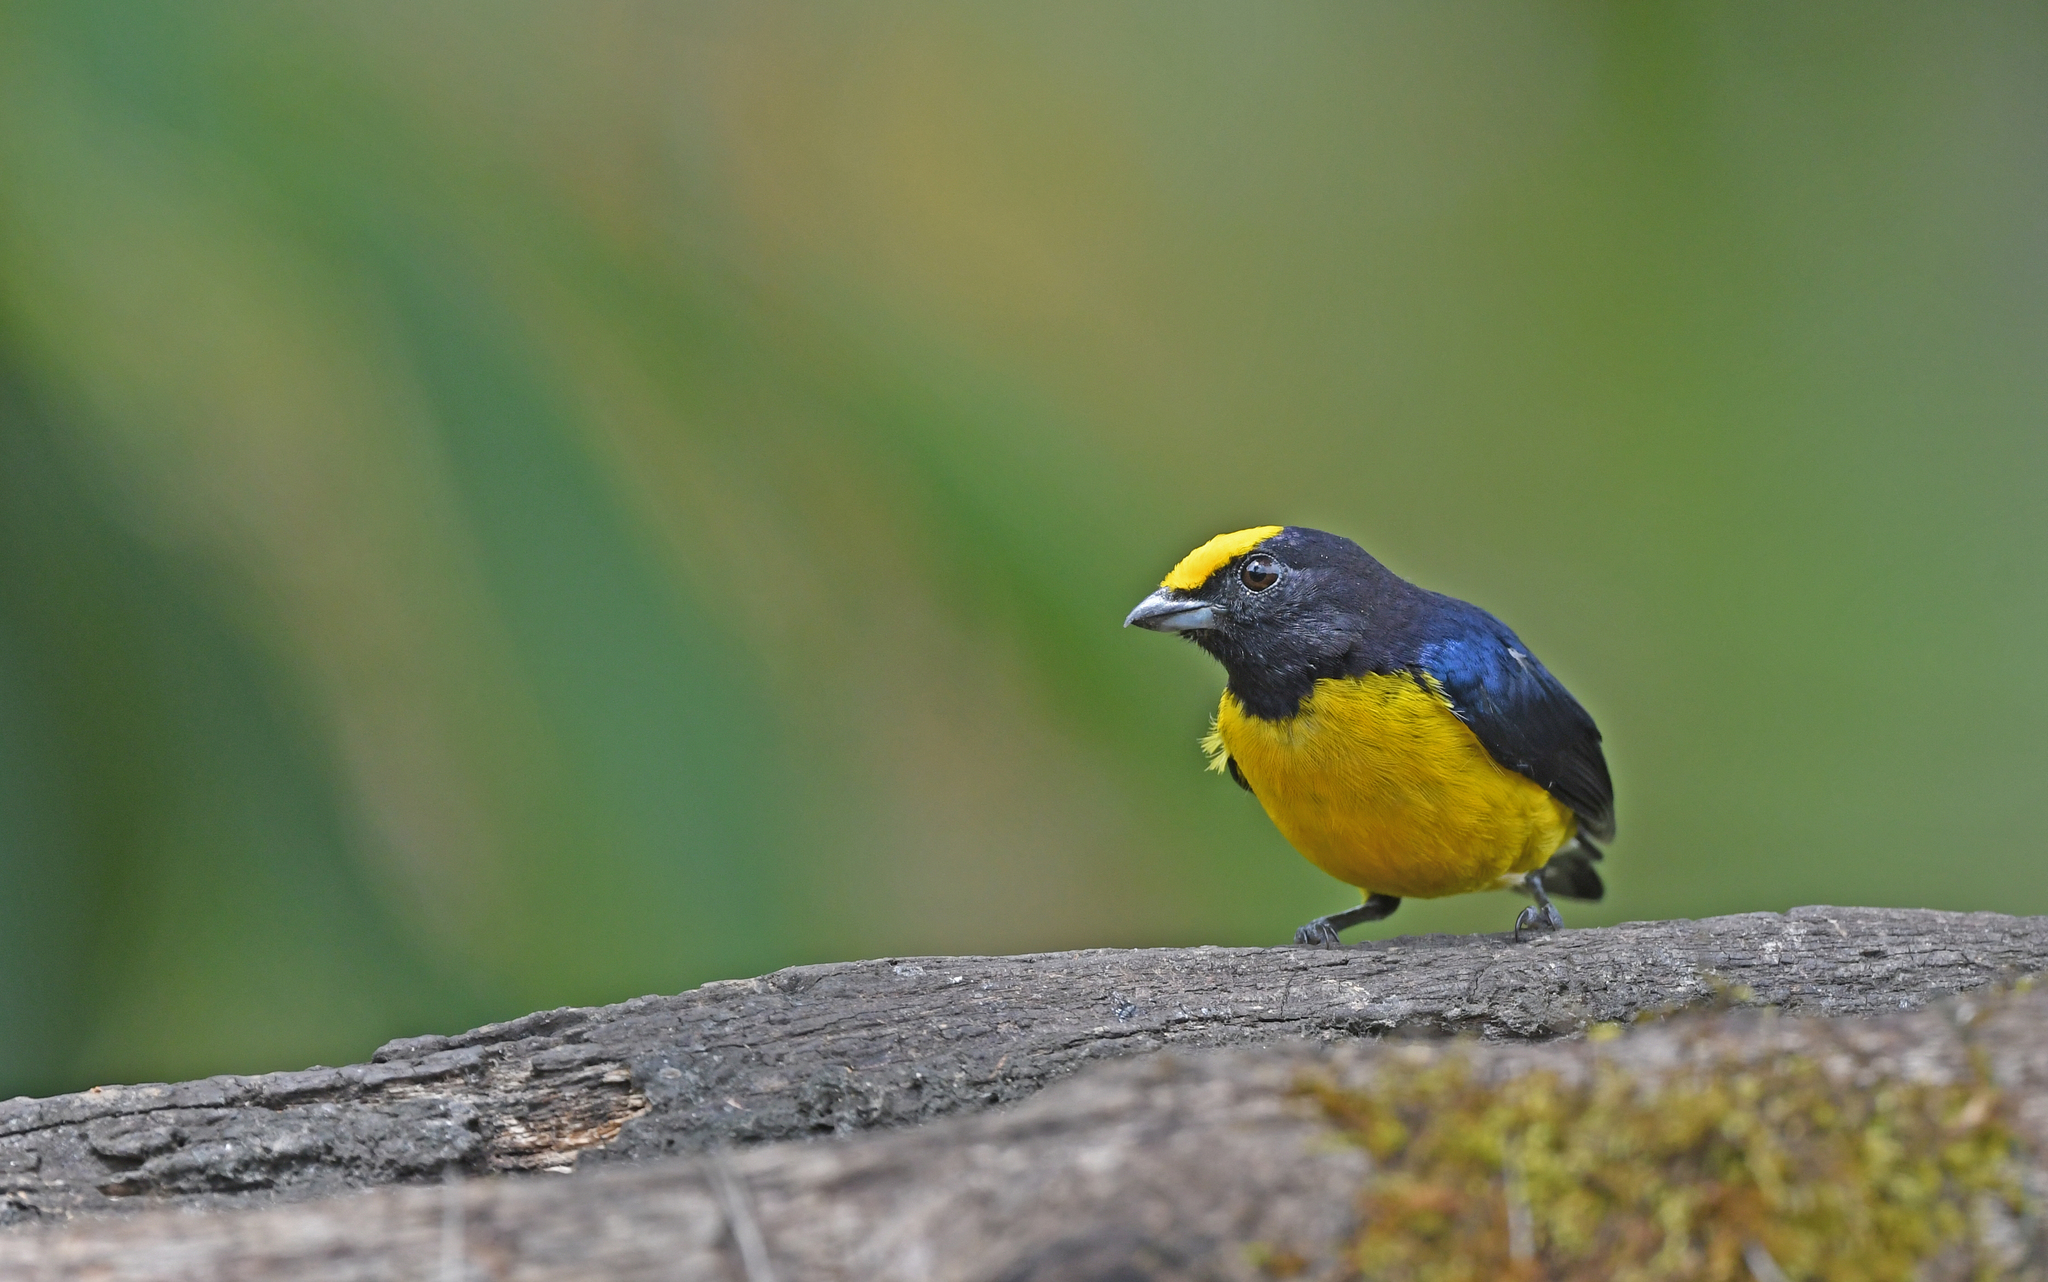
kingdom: Animalia
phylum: Chordata
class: Aves
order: Passeriformes
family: Fringillidae
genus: Euphonia
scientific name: Euphonia xanthogaster
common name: Orange-bellied euphonia
